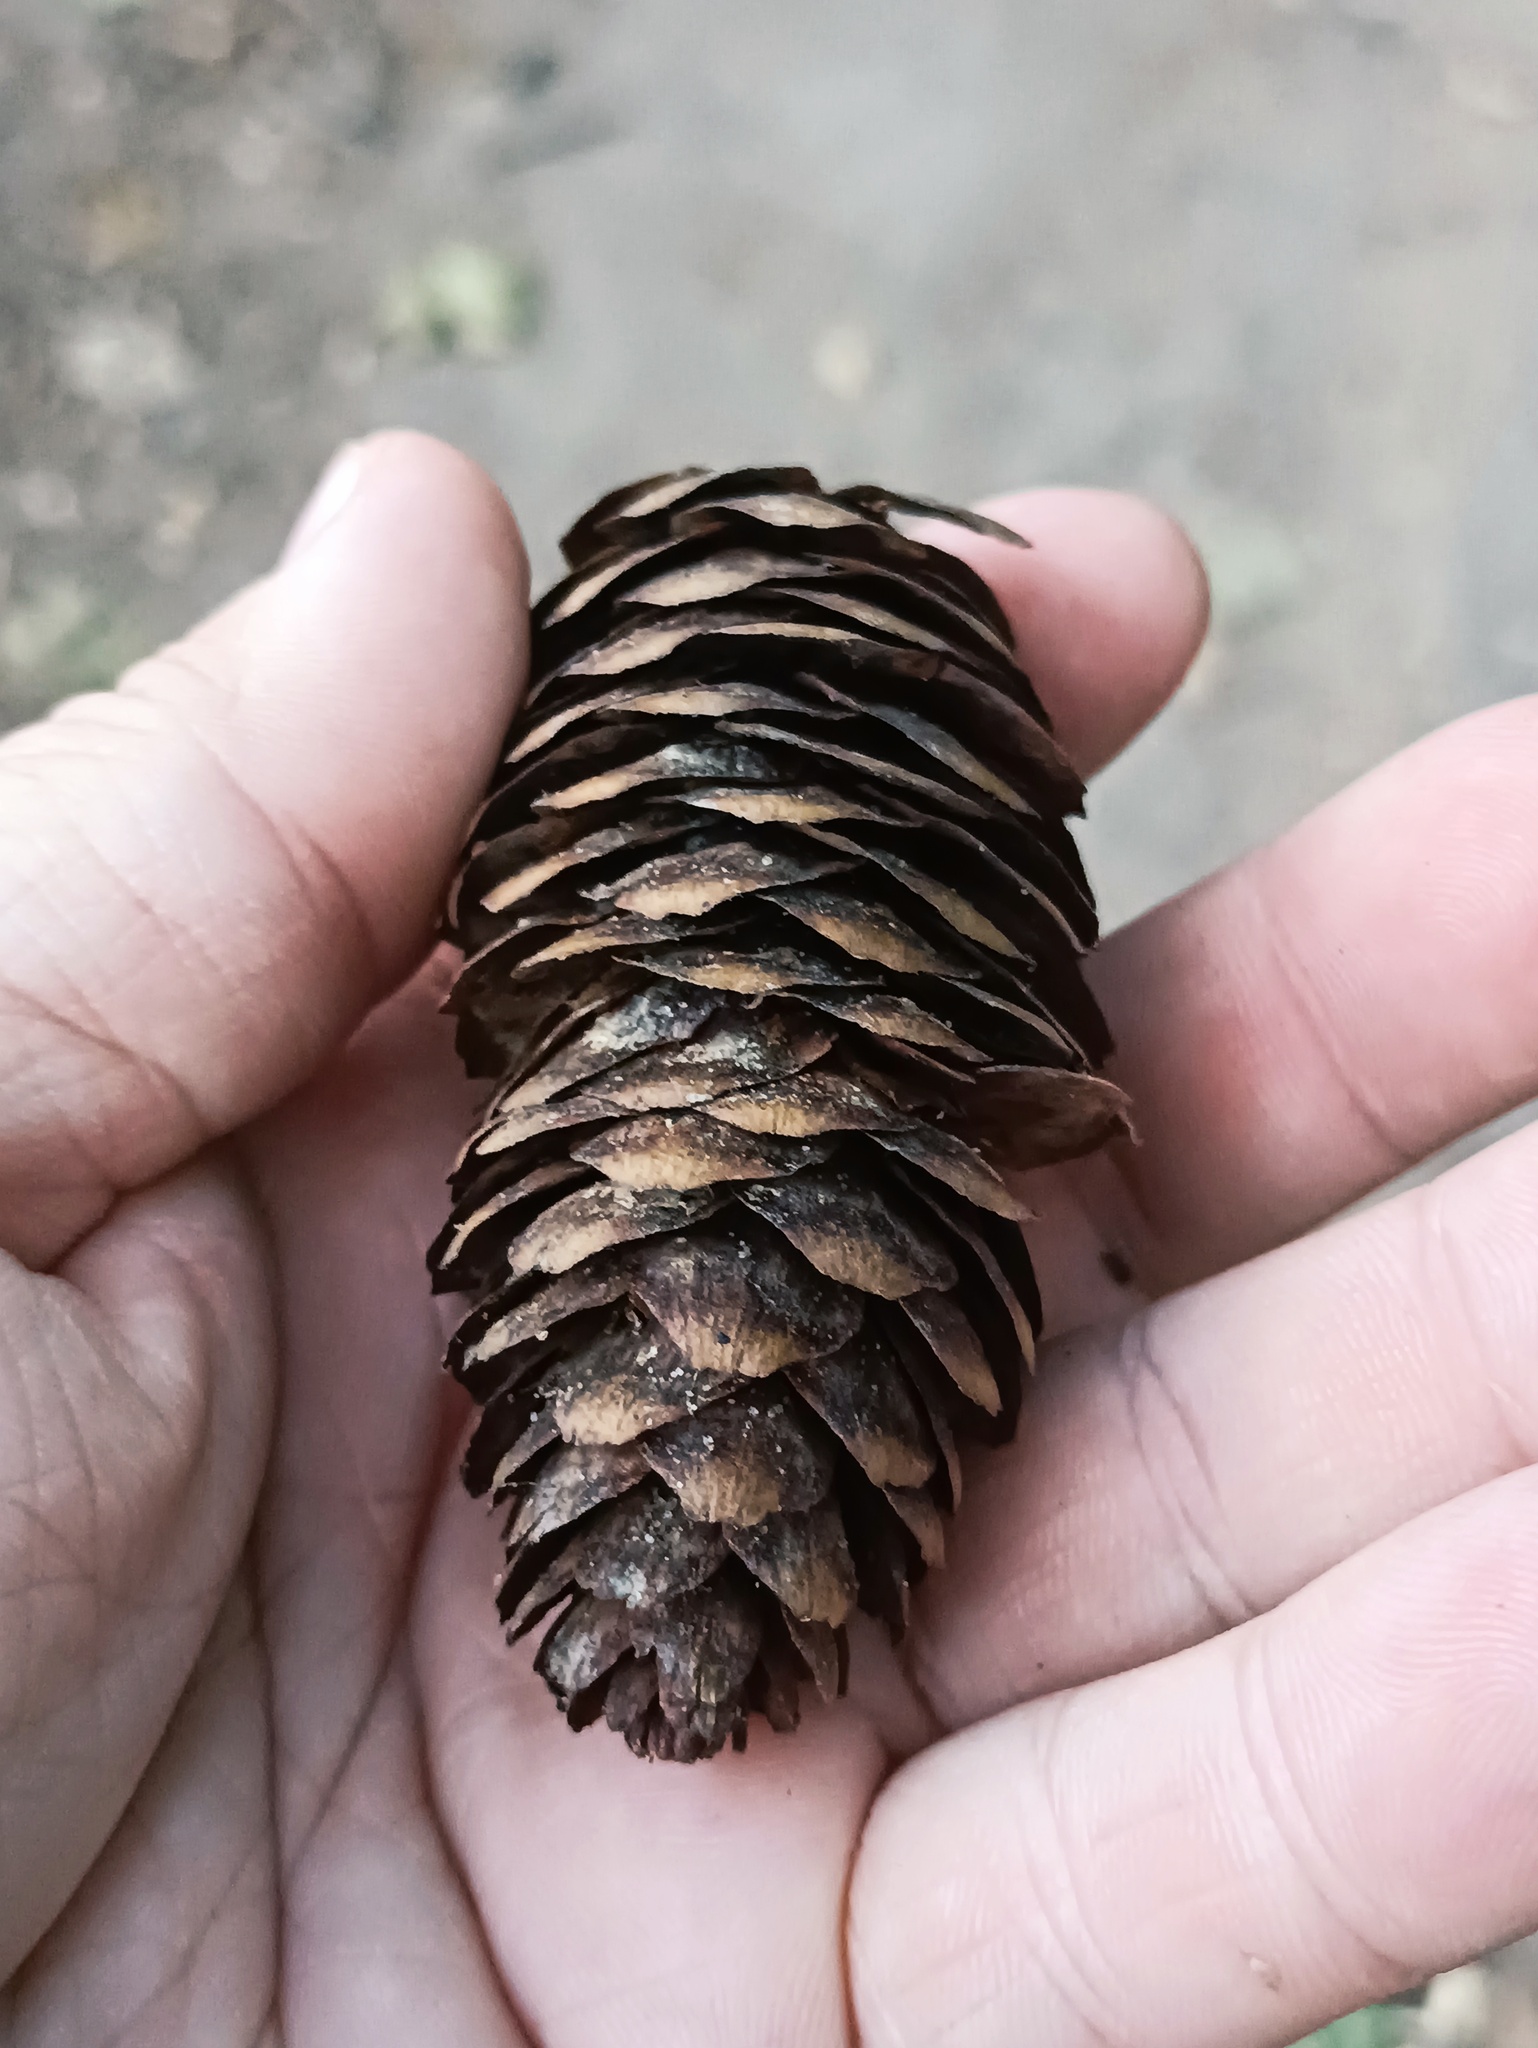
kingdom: Plantae
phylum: Tracheophyta
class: Pinopsida
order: Pinales
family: Pinaceae
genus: Picea
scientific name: Picea abies
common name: Norway spruce
